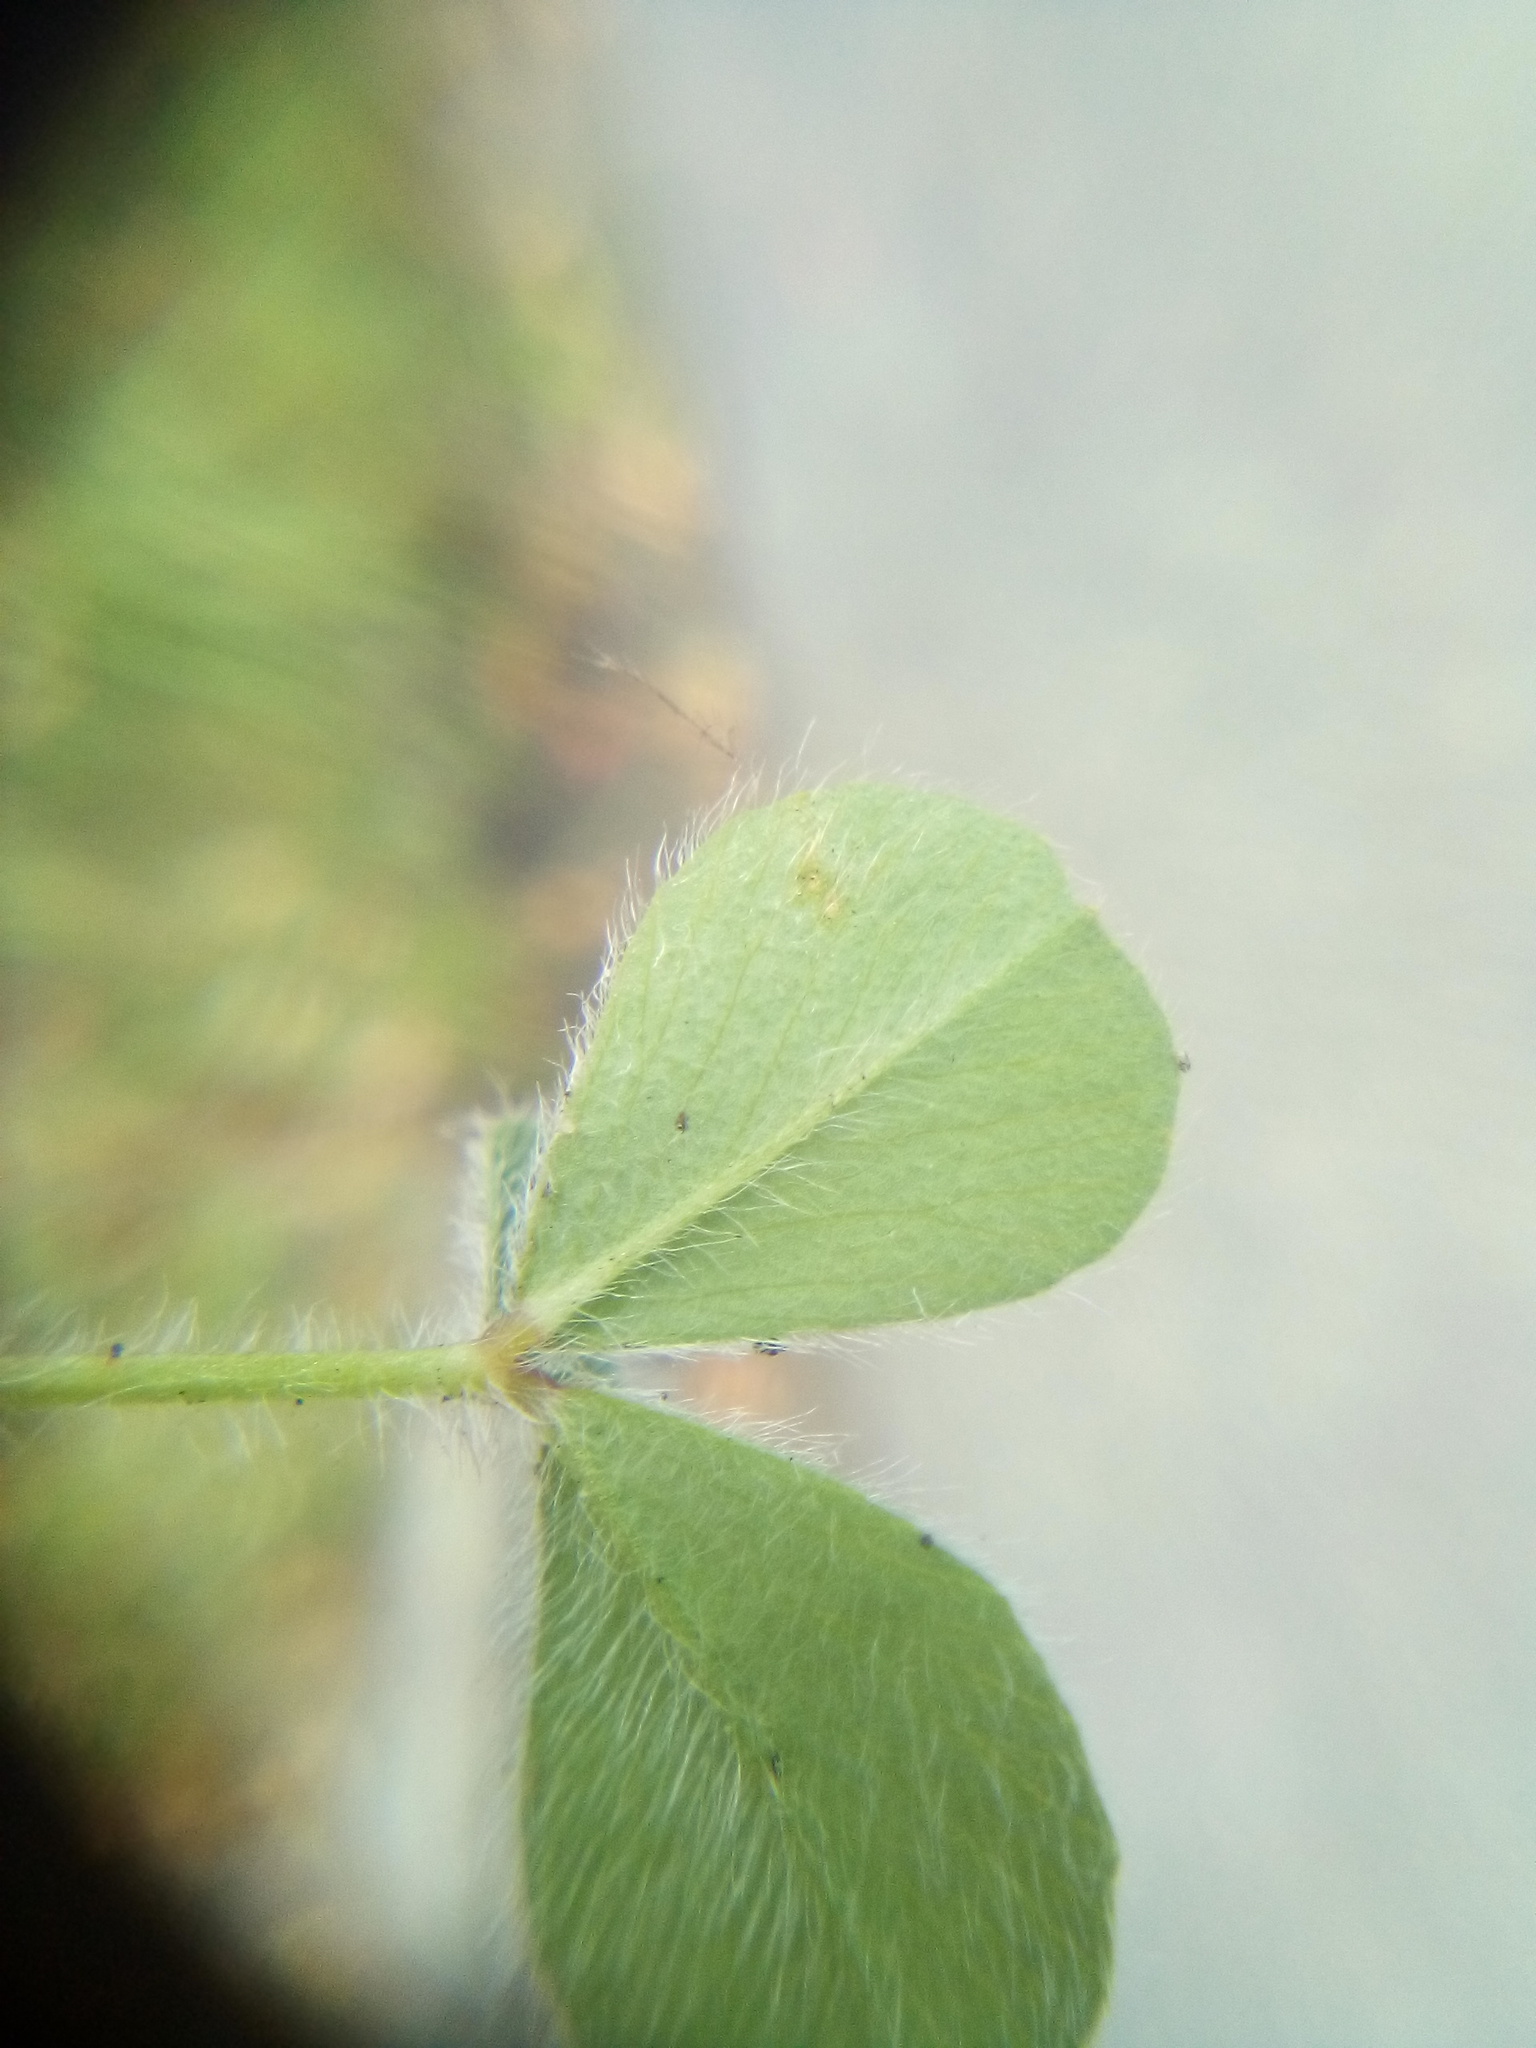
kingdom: Plantae
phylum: Tracheophyta
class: Magnoliopsida
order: Fabales
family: Fabaceae
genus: Trifolium
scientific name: Trifolium subterraneum
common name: Subterranean clover
